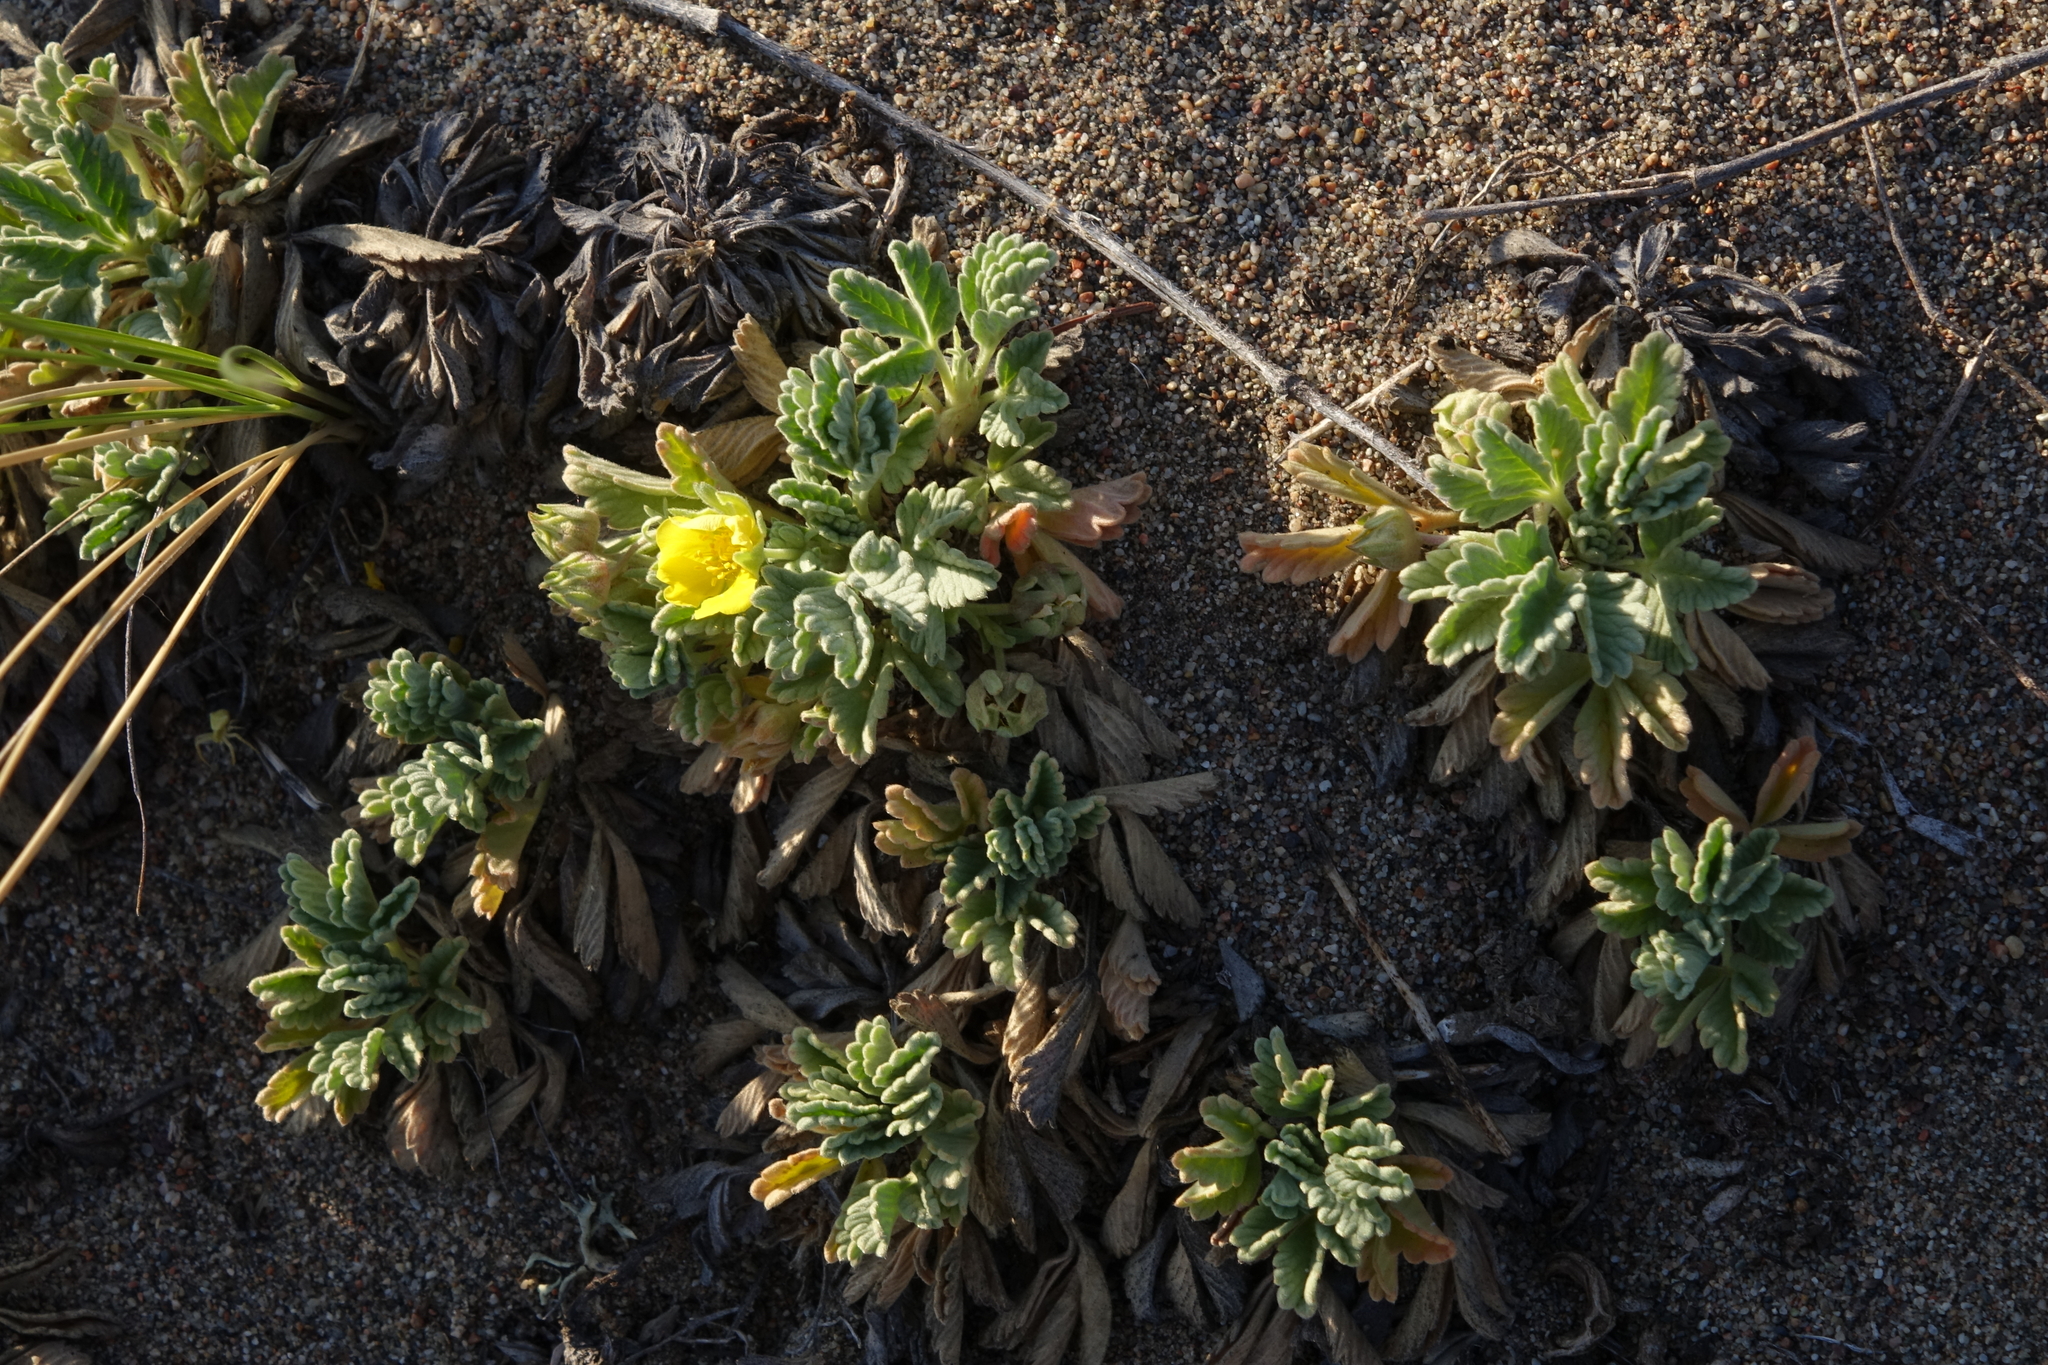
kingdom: Plantae
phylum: Tracheophyta
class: Magnoliopsida
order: Rosales
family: Rosaceae
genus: Potentilla
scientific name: Potentilla acaulis
